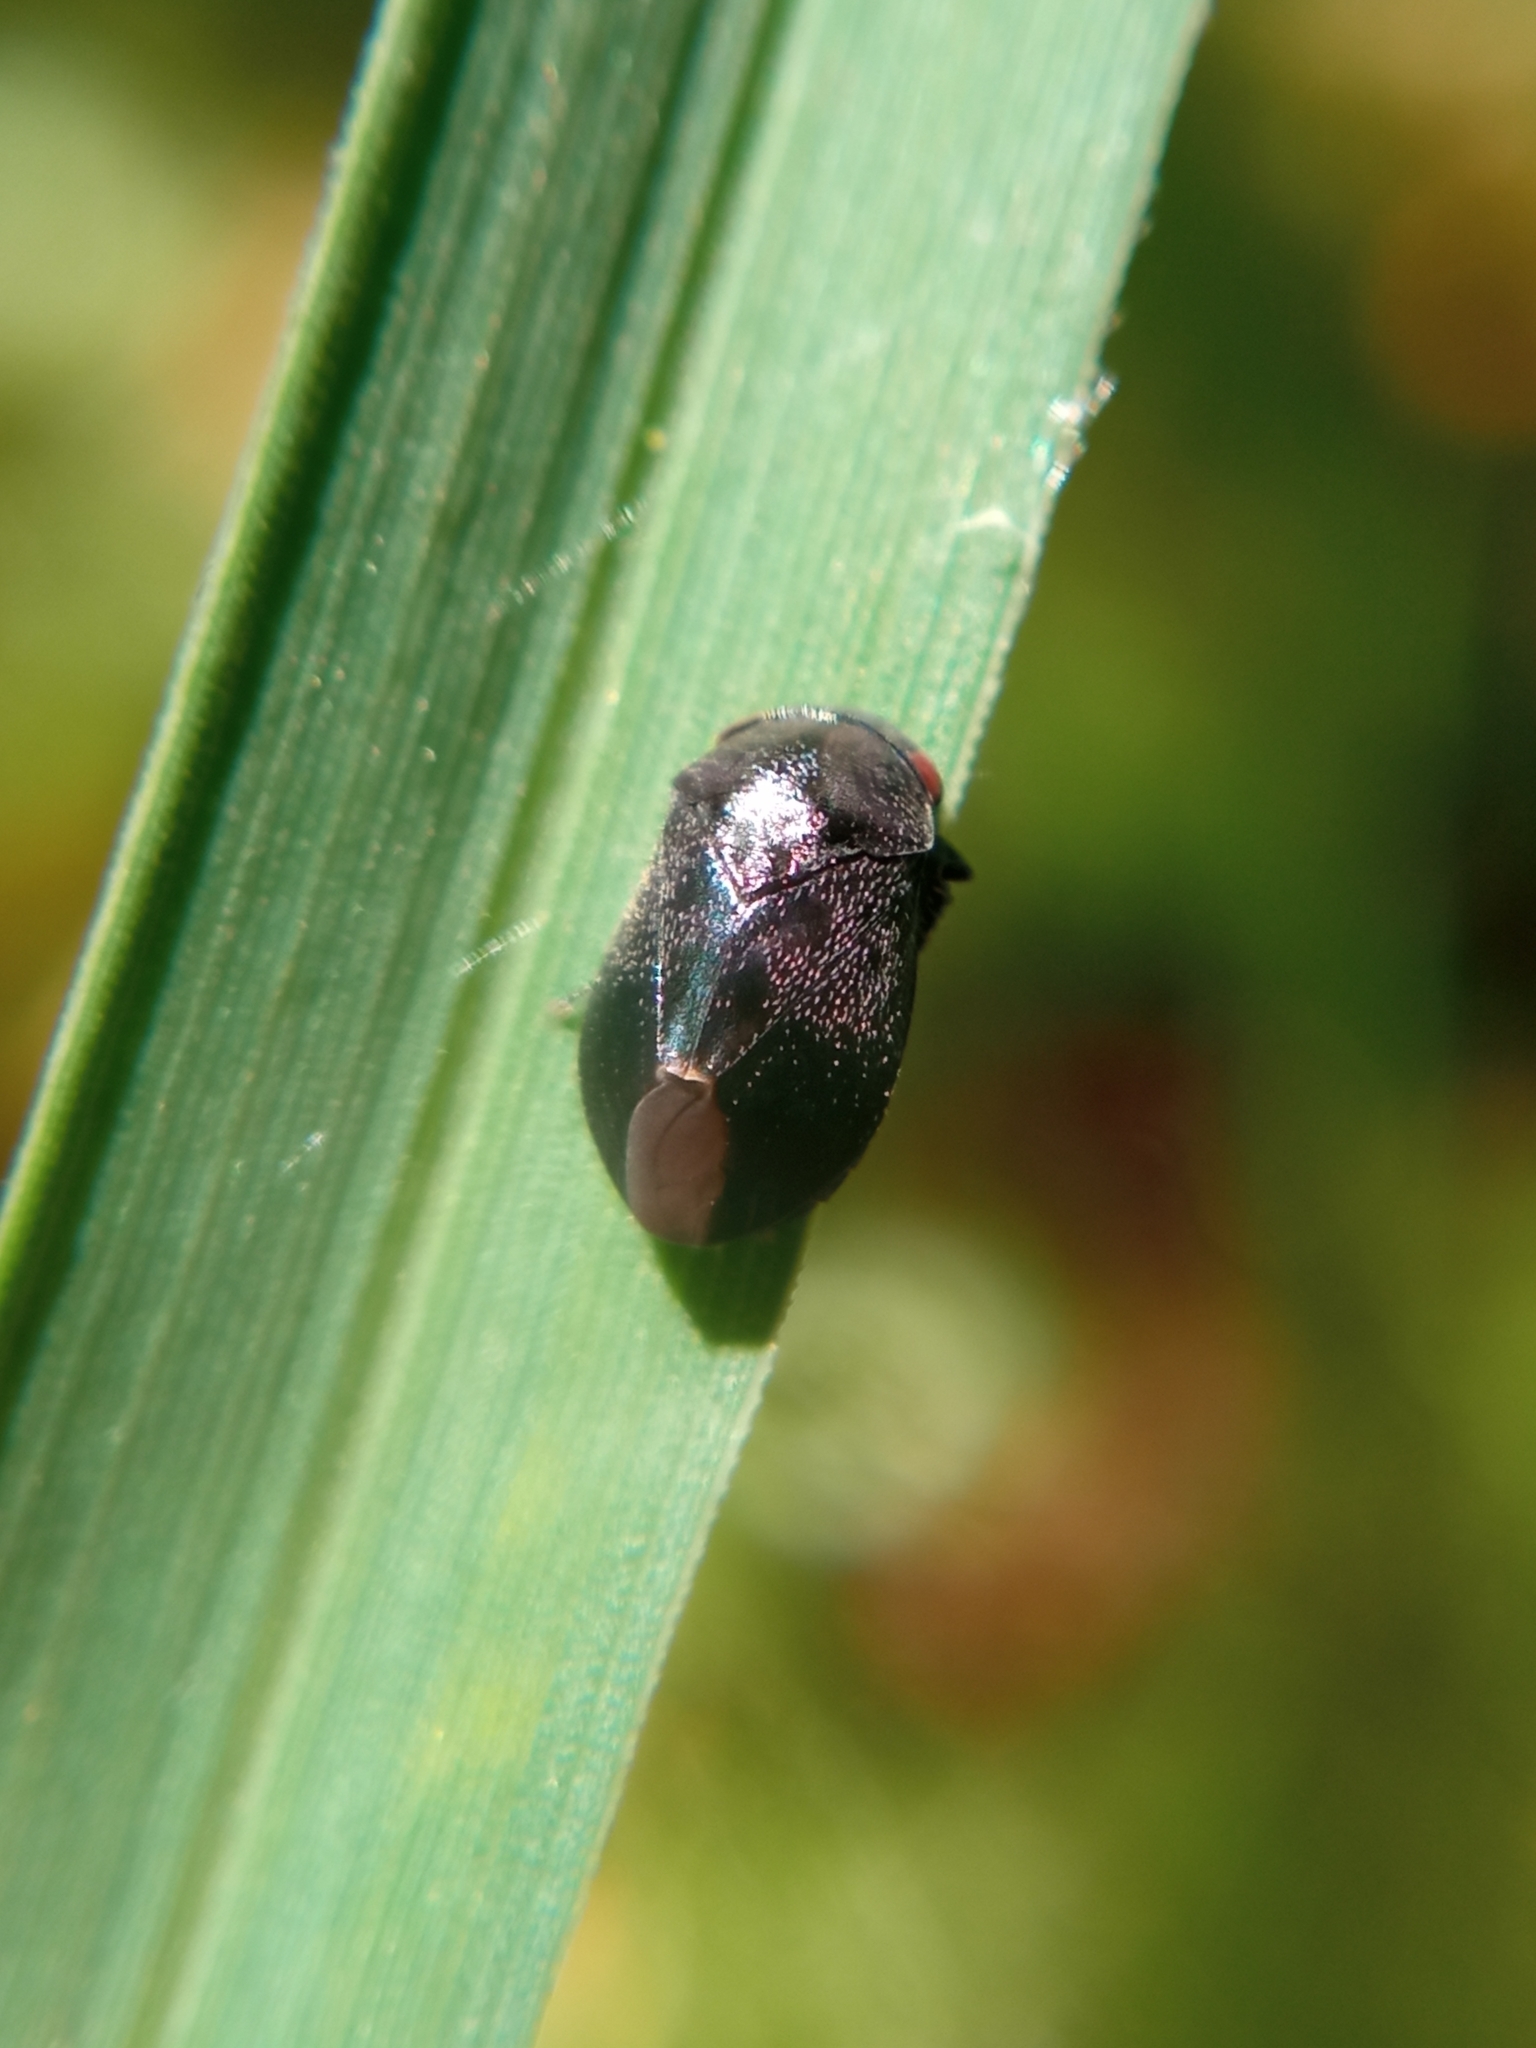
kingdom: Animalia
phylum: Arthropoda
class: Insecta
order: Hemiptera
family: Cicadellidae
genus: Penthimia
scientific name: Penthimia nigra
